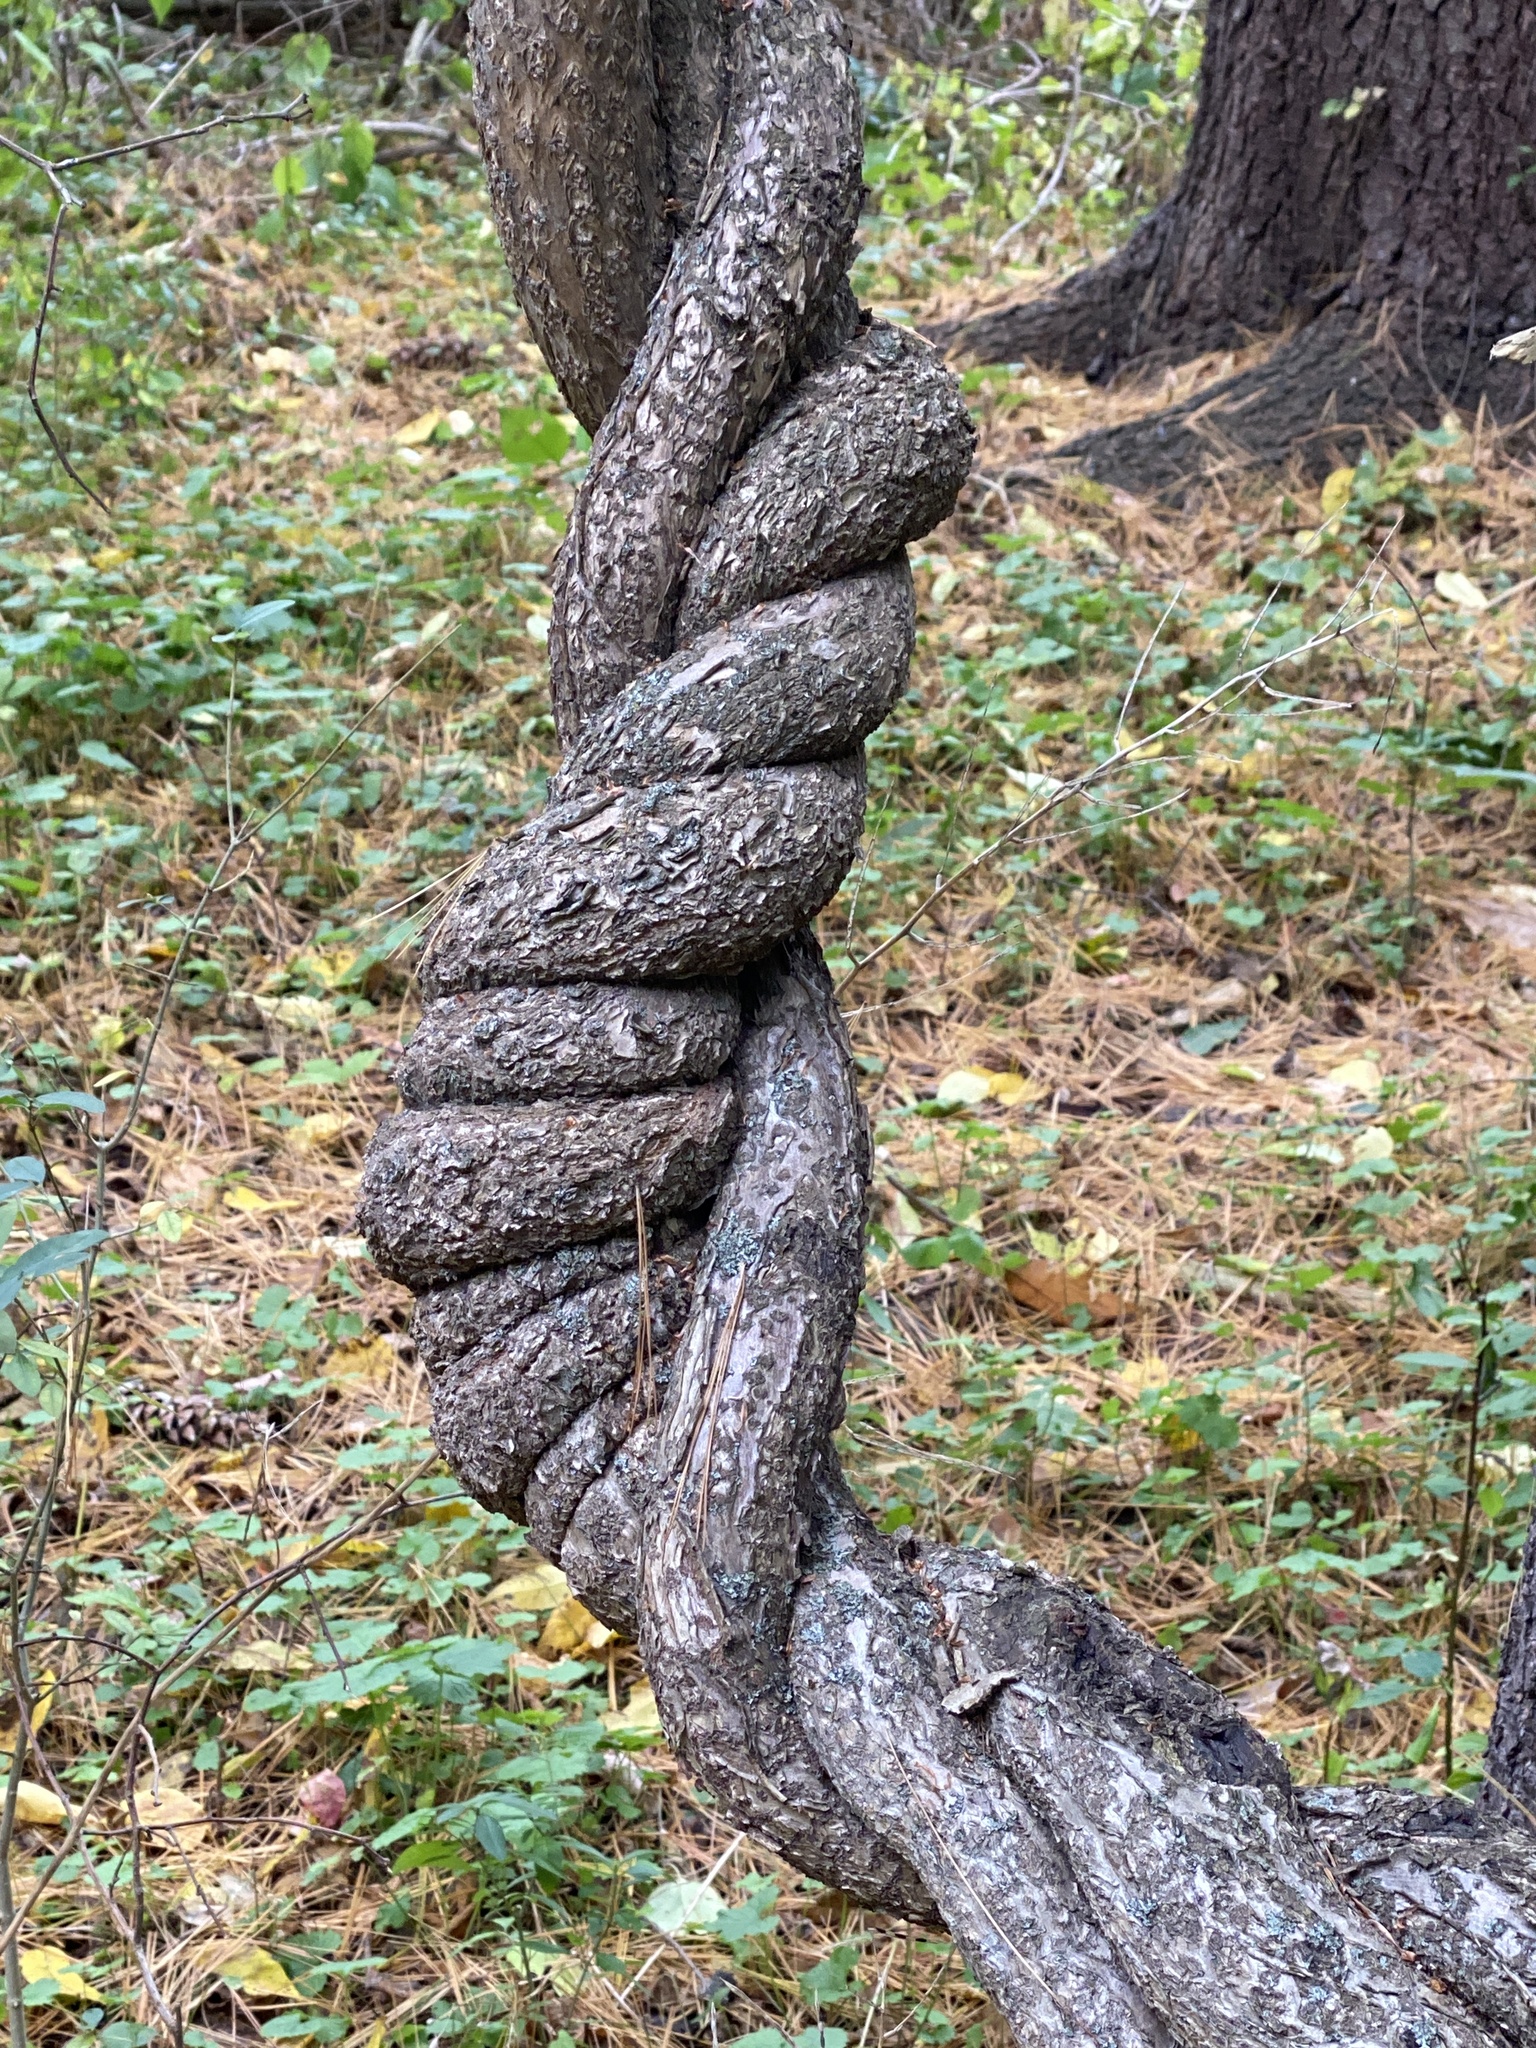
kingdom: Plantae
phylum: Tracheophyta
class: Magnoliopsida
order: Celastrales
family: Celastraceae
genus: Celastrus
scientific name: Celastrus orbiculatus
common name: Oriental bittersweet
